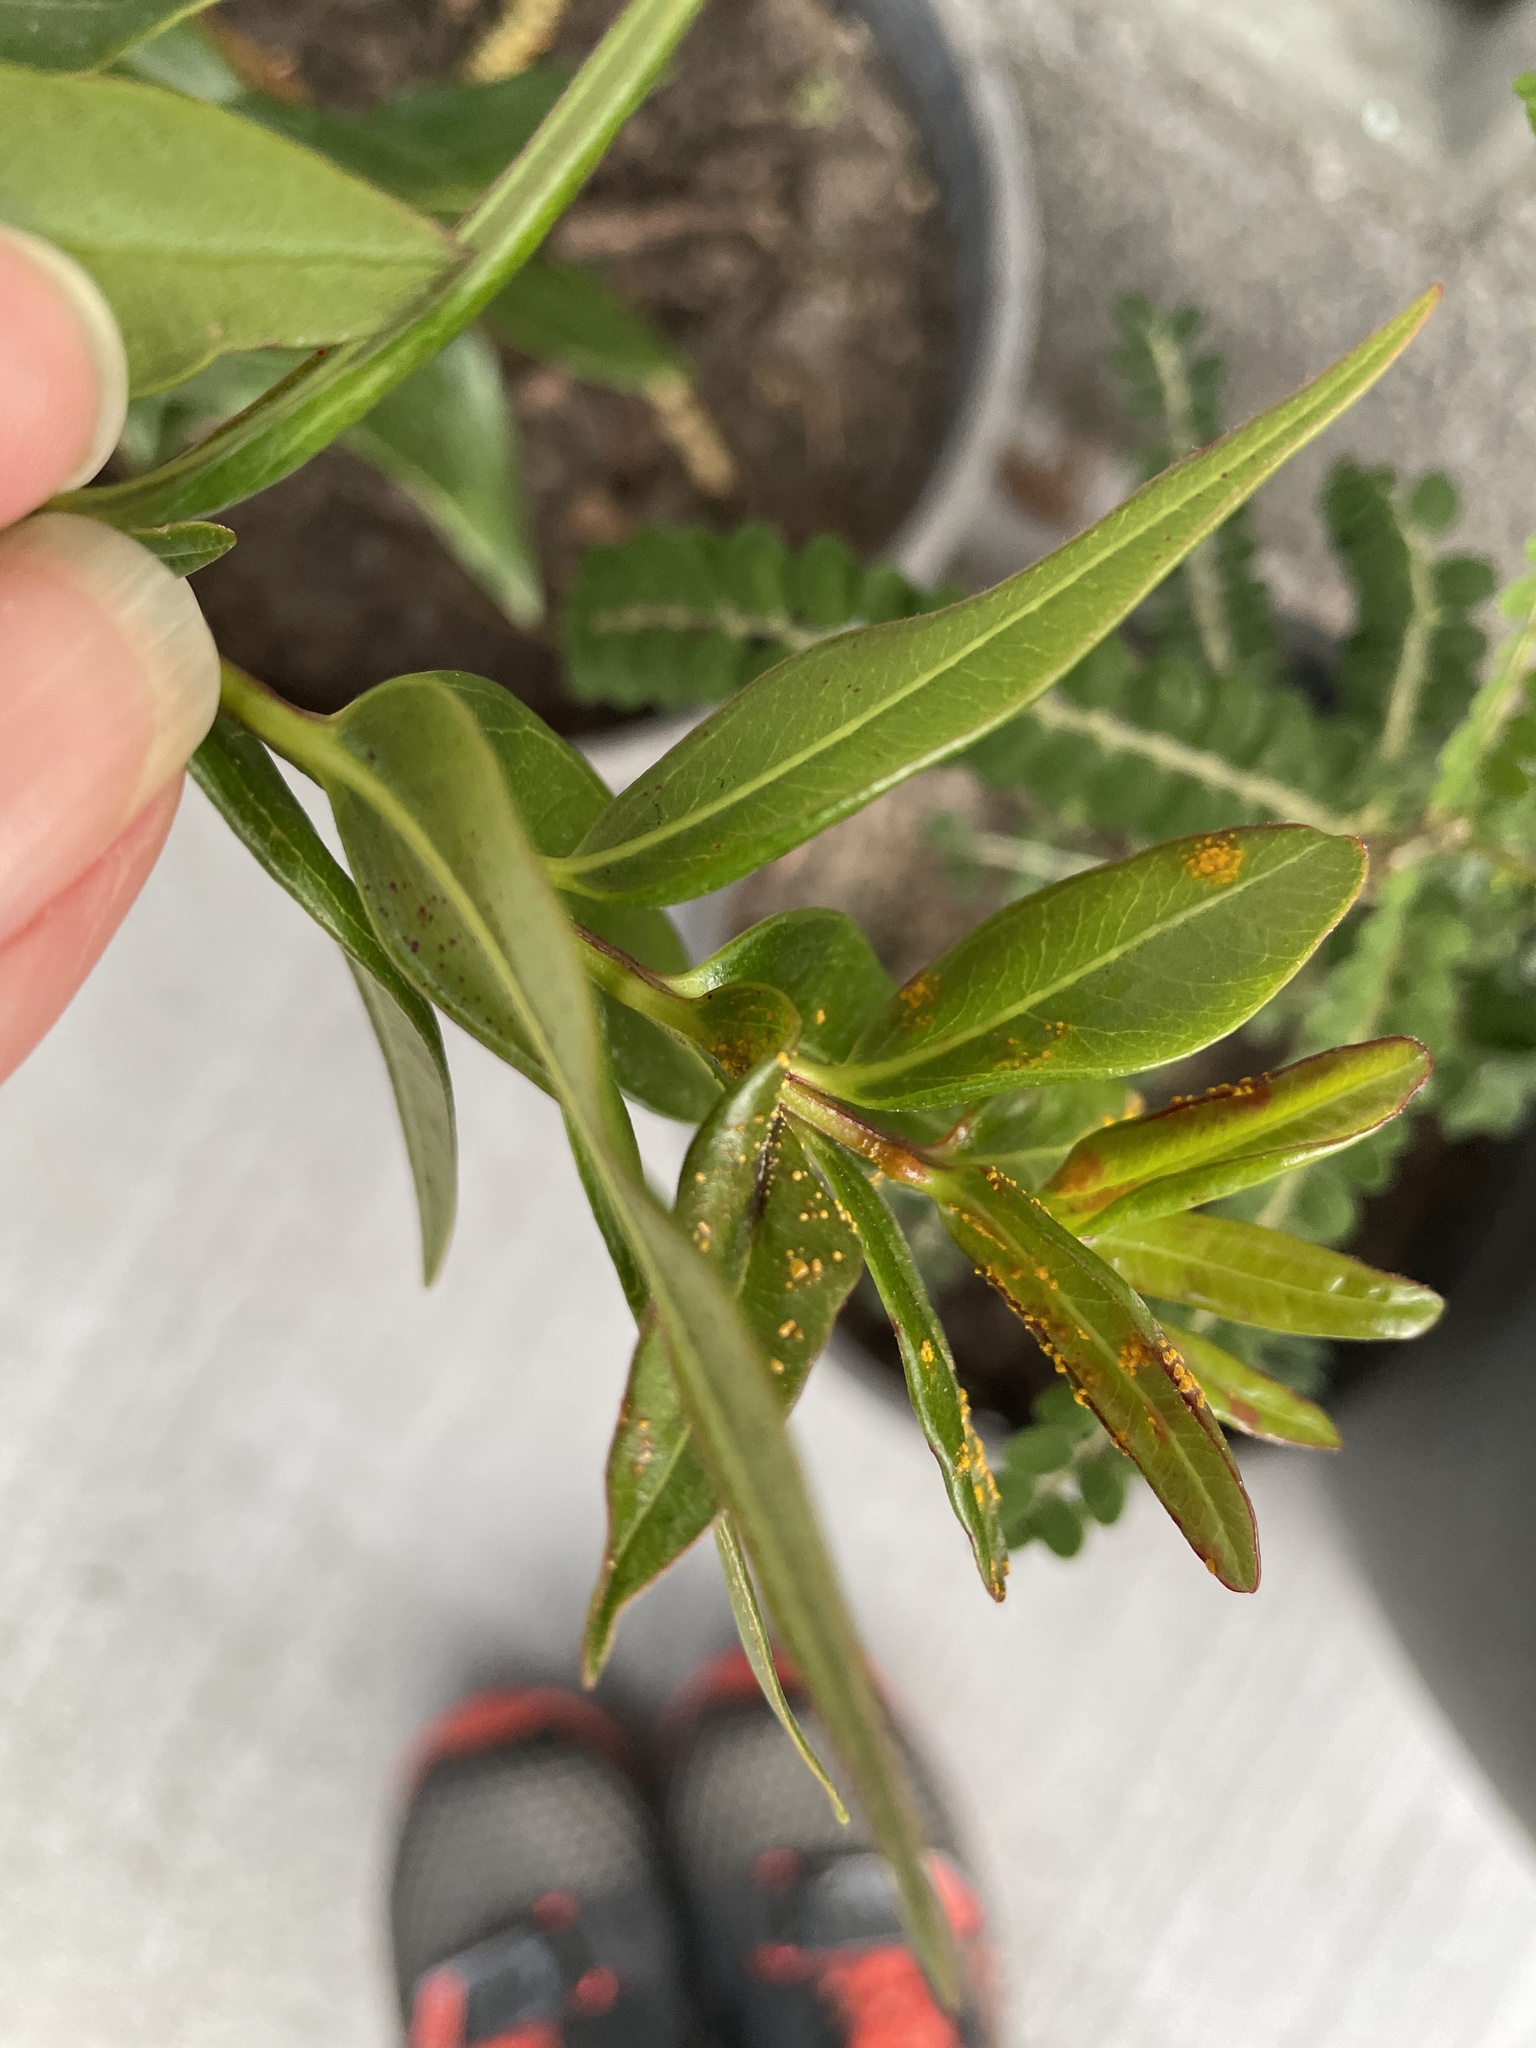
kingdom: Fungi
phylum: Basidiomycota
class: Pucciniomycetes
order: Pucciniales
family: Sphaerophragmiaceae
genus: Austropuccinia
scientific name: Austropuccinia psidii
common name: Myrtle rust
